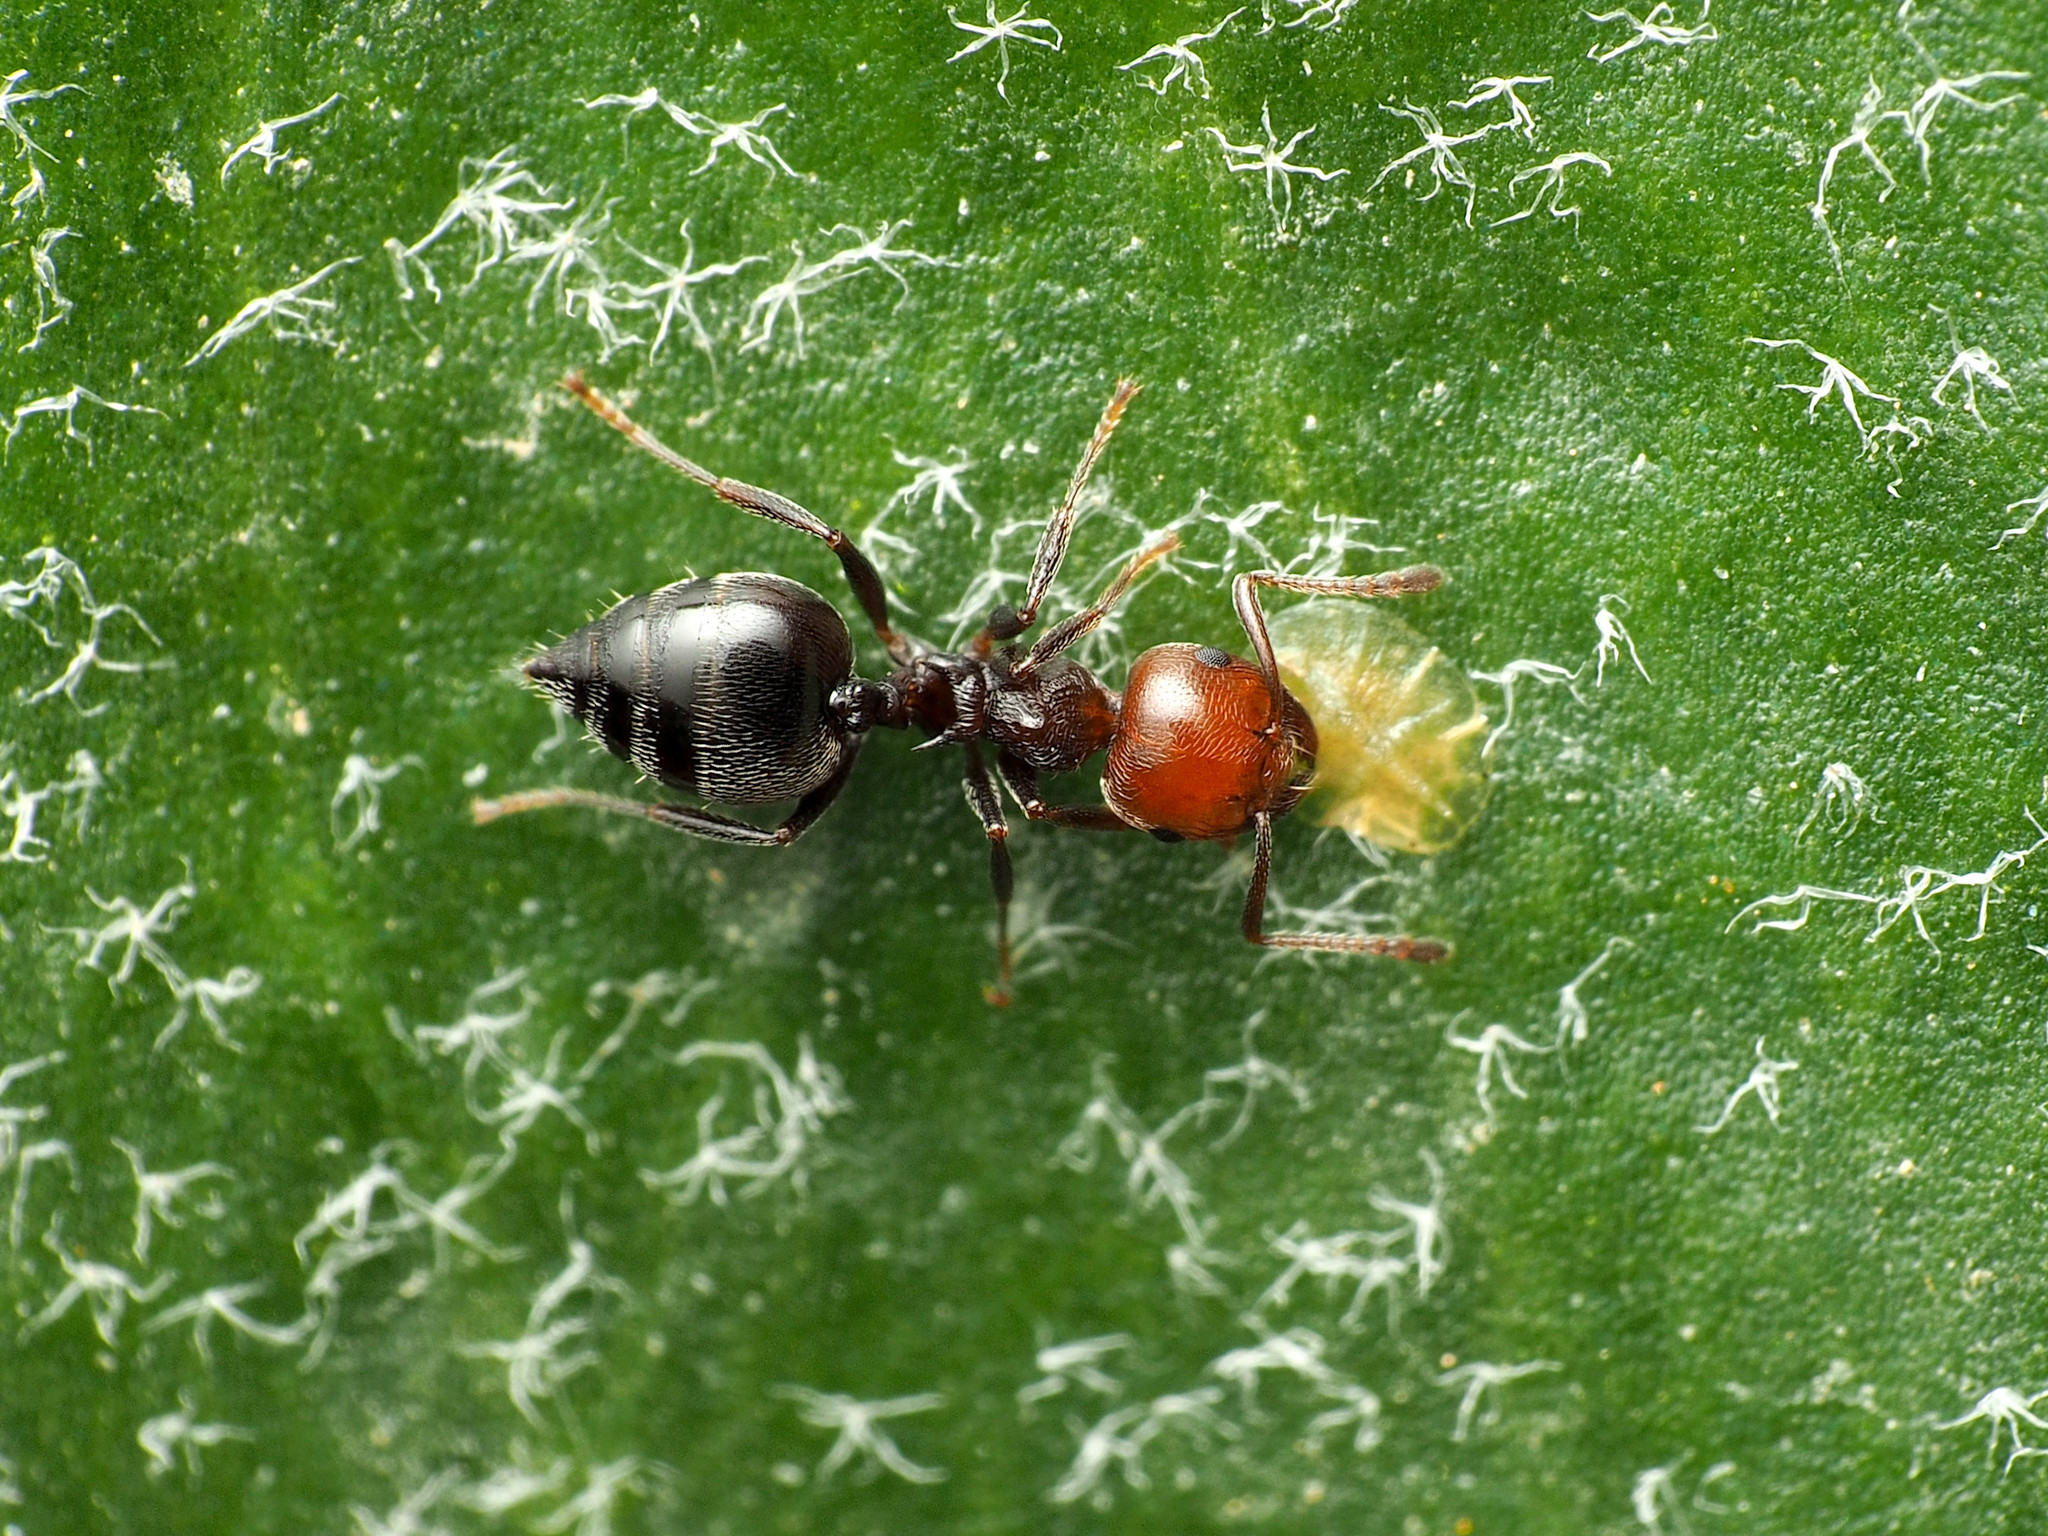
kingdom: Animalia
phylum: Arthropoda
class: Insecta
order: Hymenoptera
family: Formicidae
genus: Crematogaster
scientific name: Crematogaster scutellaris
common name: Fourmi du liège
